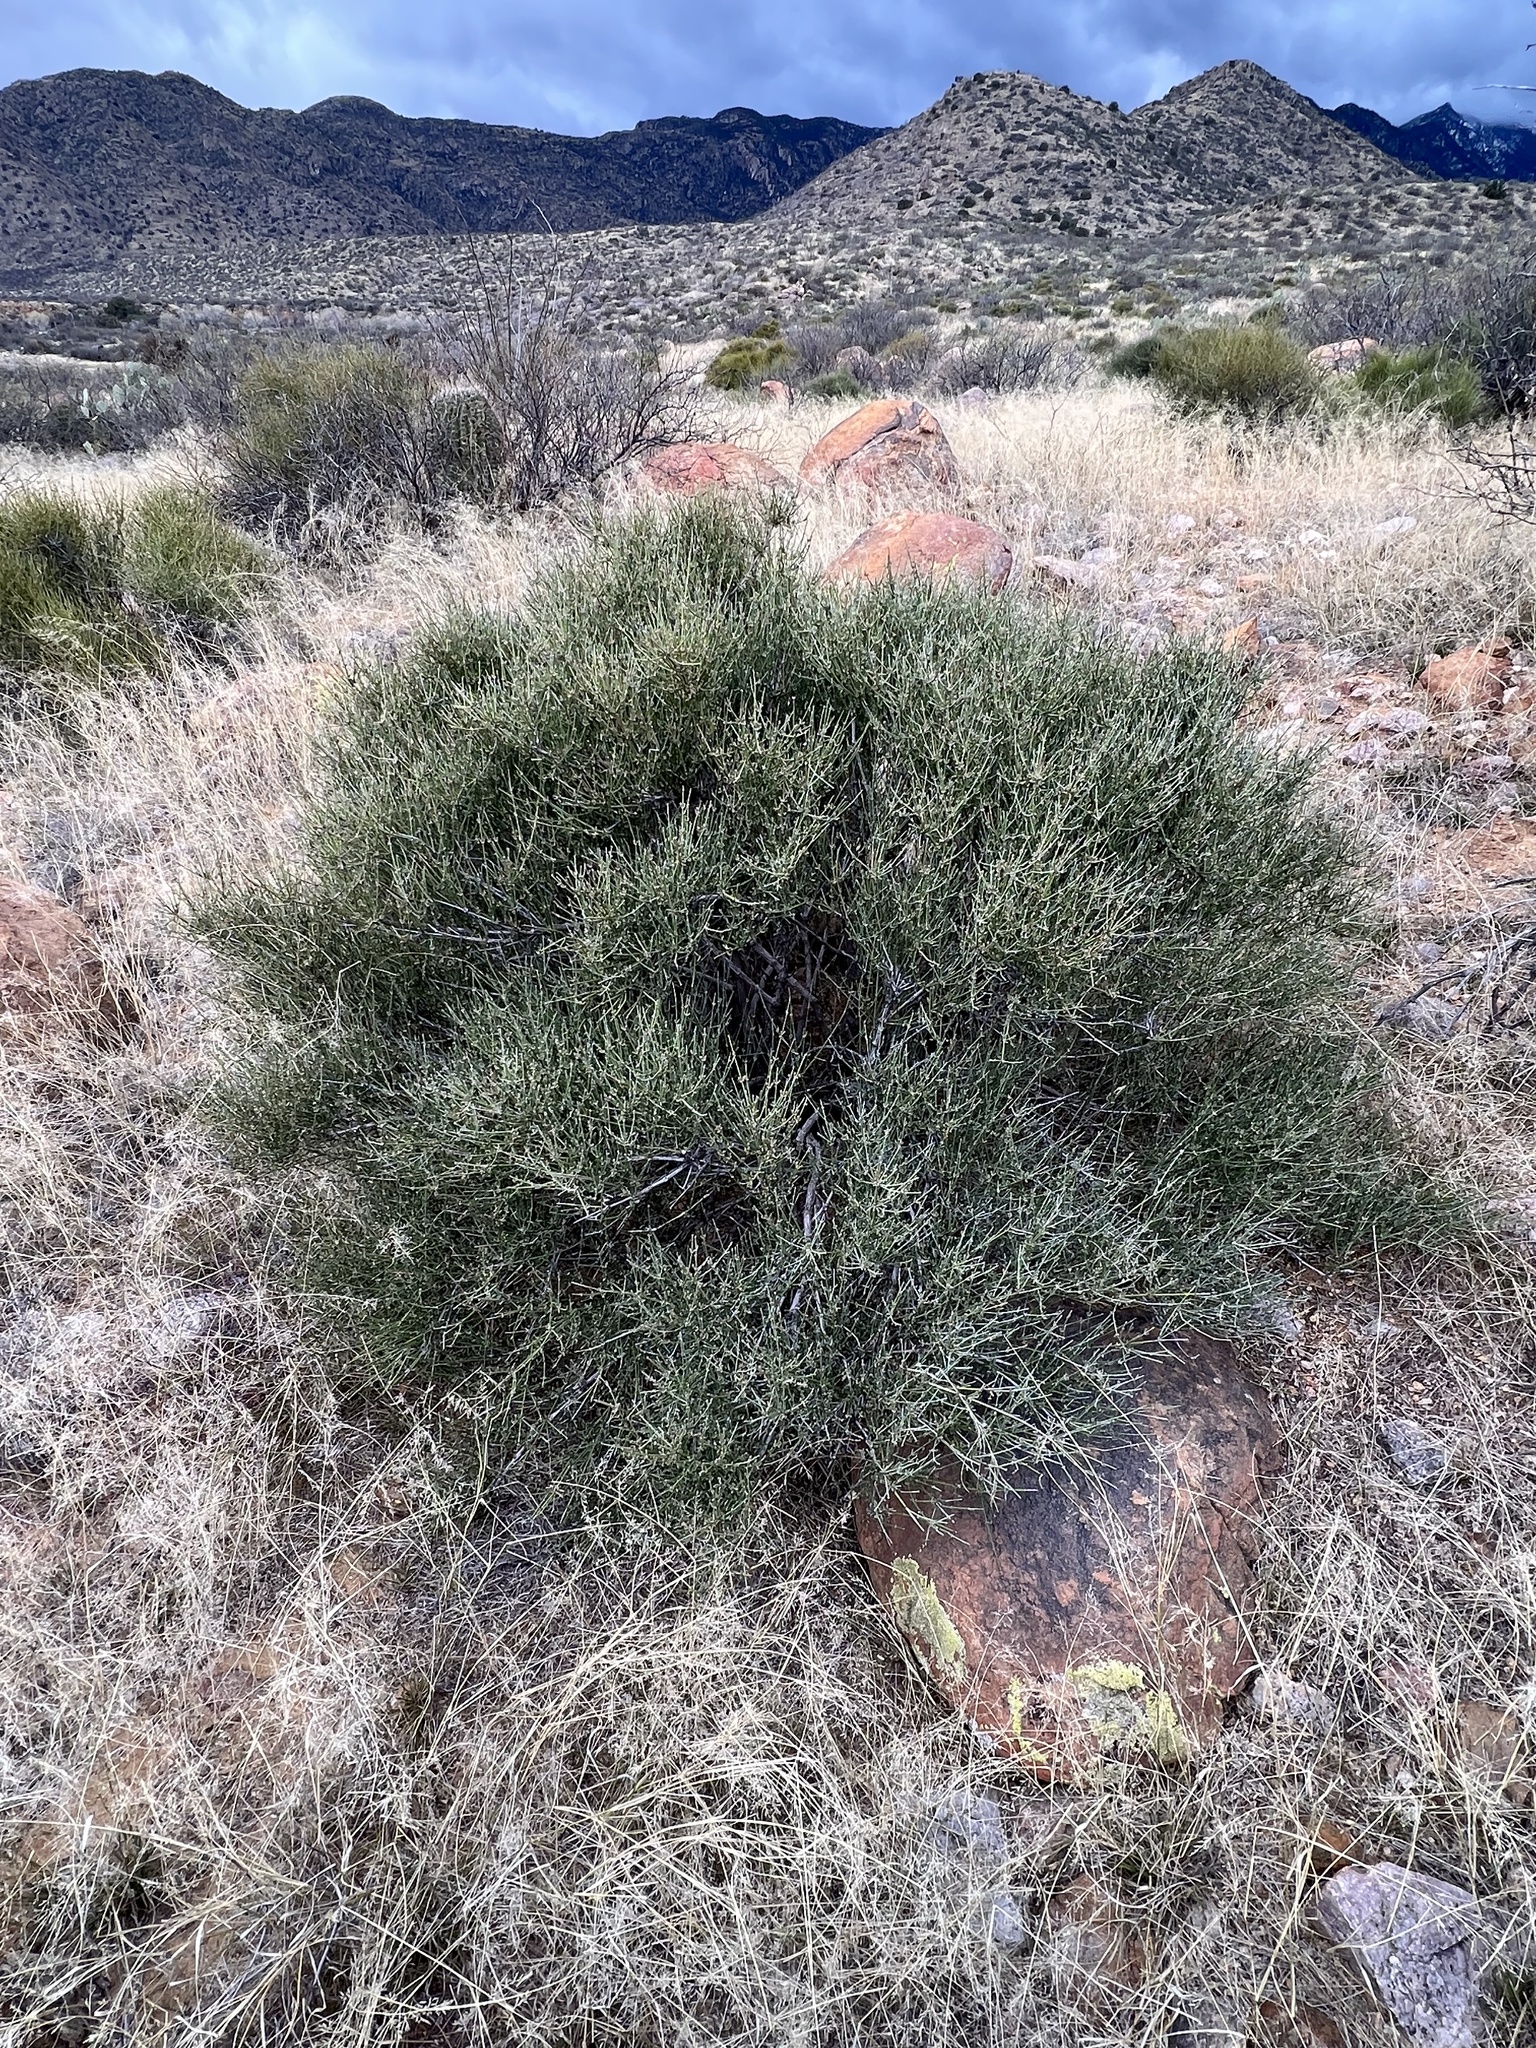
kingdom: Plantae
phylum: Tracheophyta
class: Gnetopsida
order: Ephedrales
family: Ephedraceae
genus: Ephedra
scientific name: Ephedra aspera
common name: Boundary ephedra
